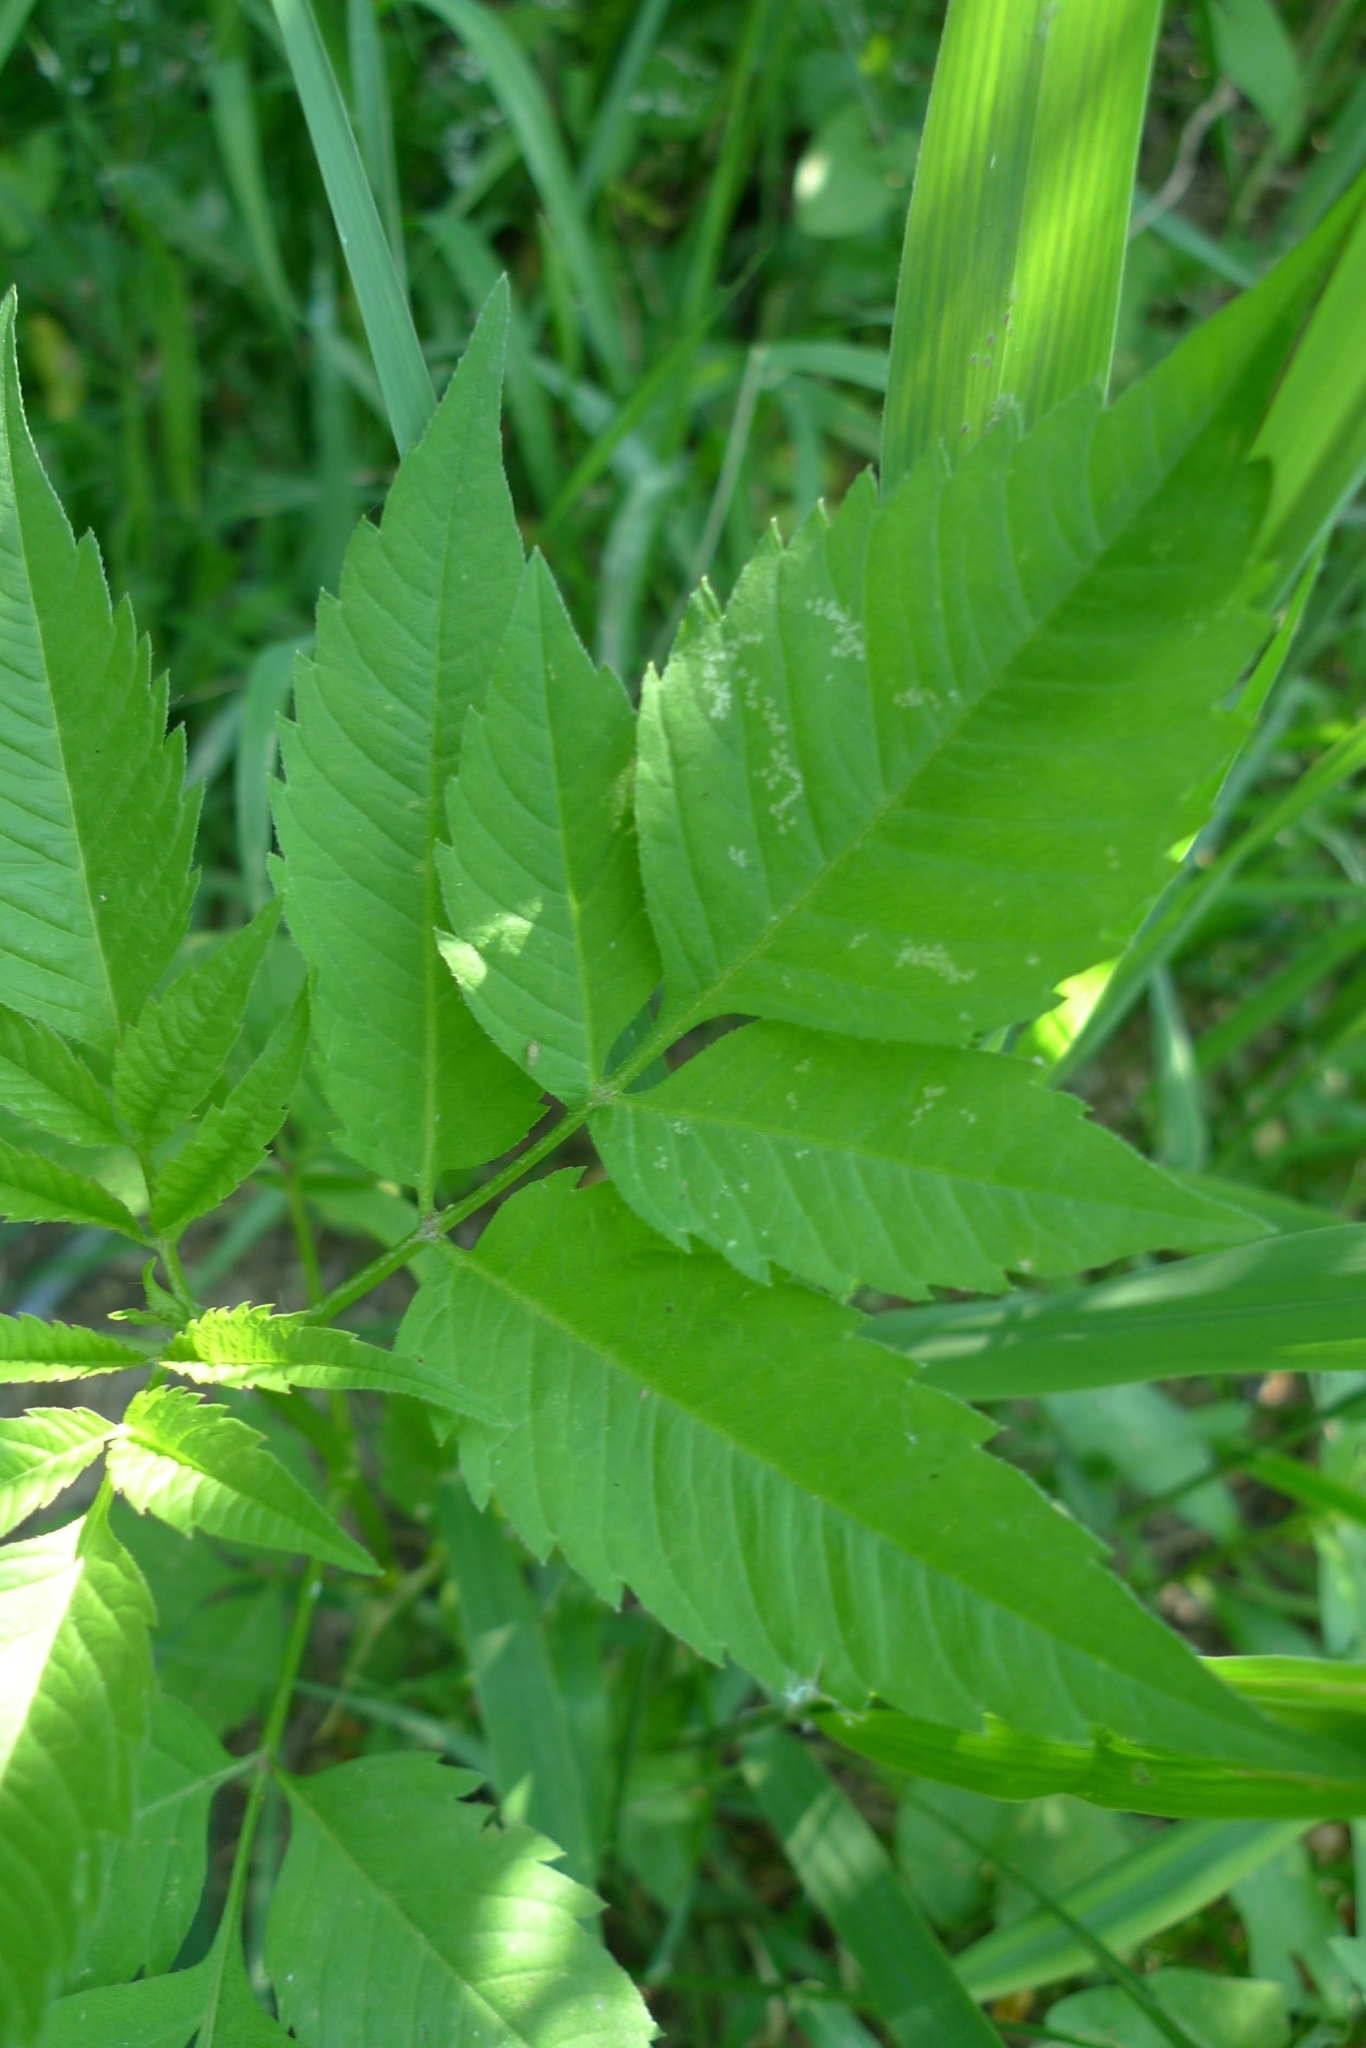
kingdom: Plantae
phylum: Tracheophyta
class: Magnoliopsida
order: Asterales
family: Asteraceae
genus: Bidens
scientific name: Bidens frondosa
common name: Beggarticks
